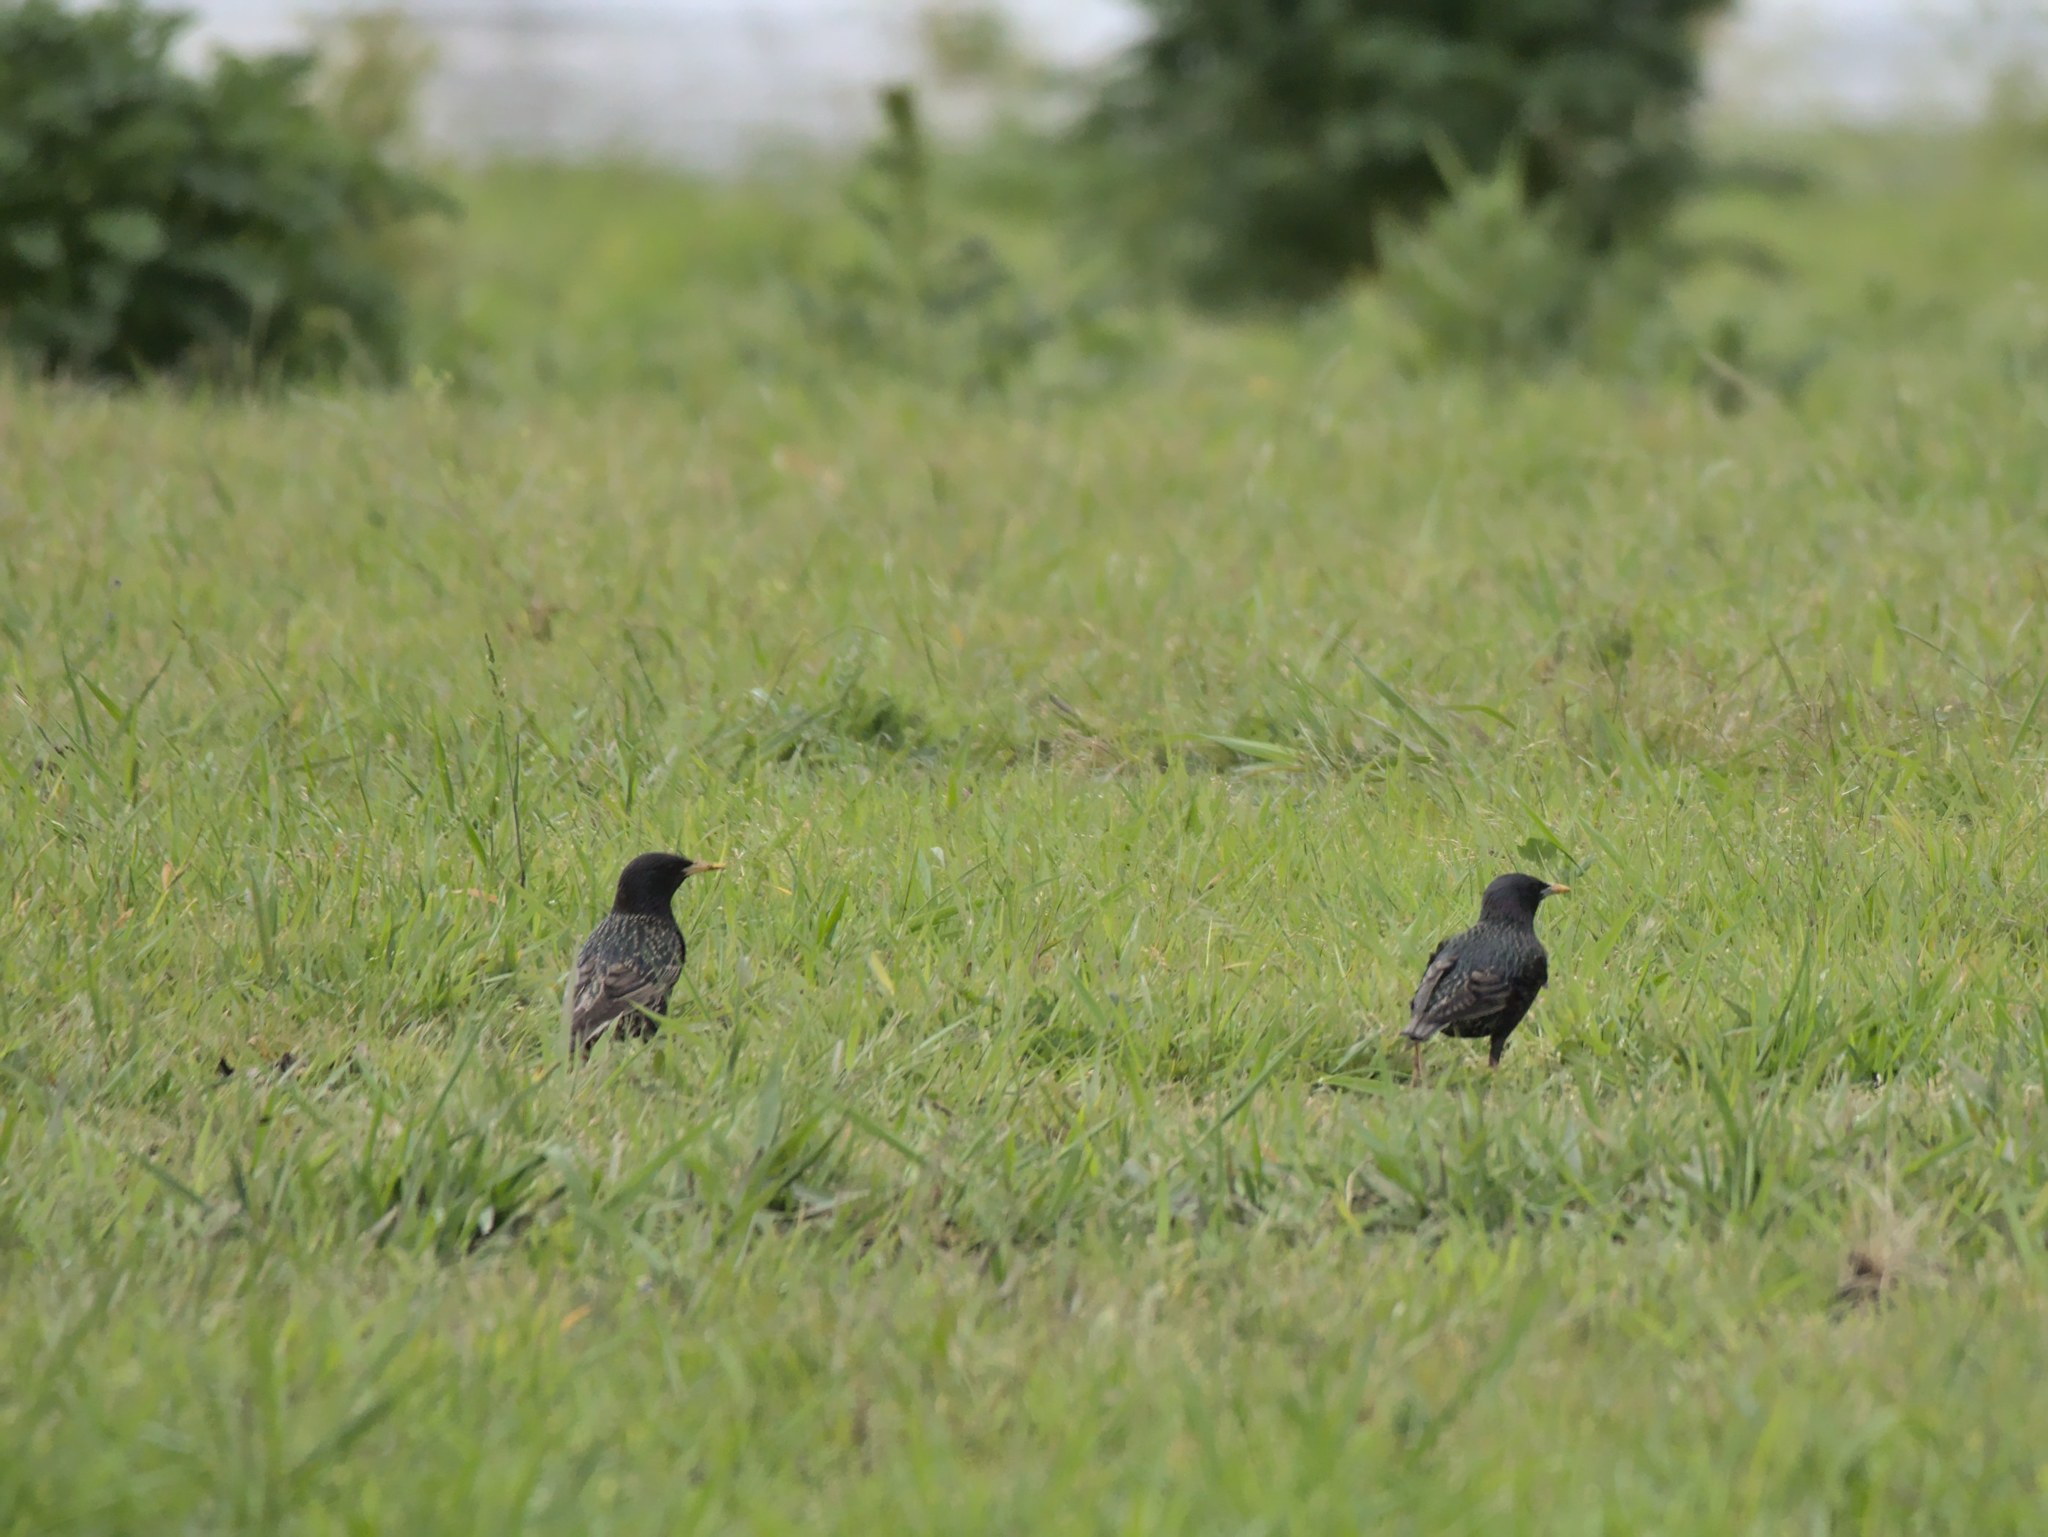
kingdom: Animalia
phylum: Chordata
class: Aves
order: Passeriformes
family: Sturnidae
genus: Sturnus
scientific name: Sturnus vulgaris
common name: Common starling
